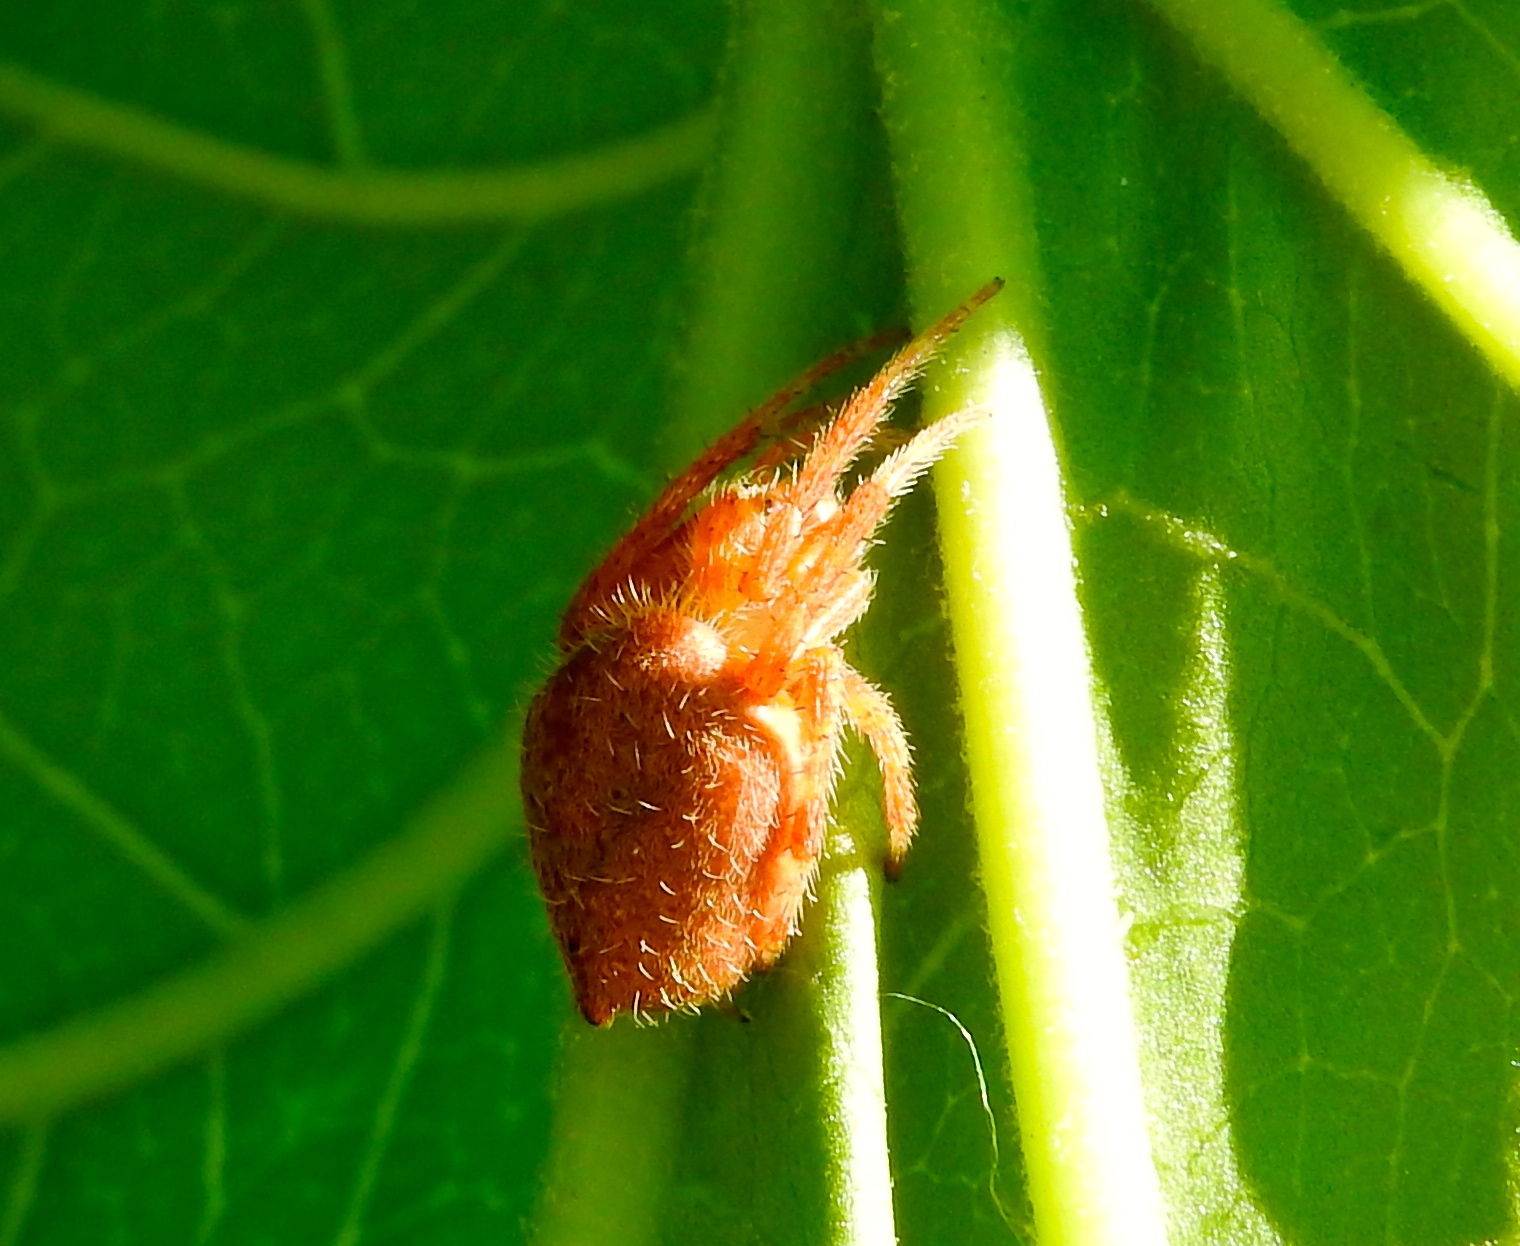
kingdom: Animalia
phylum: Arthropoda
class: Arachnida
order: Araneae
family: Araneidae
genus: Eriophora
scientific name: Eriophora edax
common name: Orb weavers
